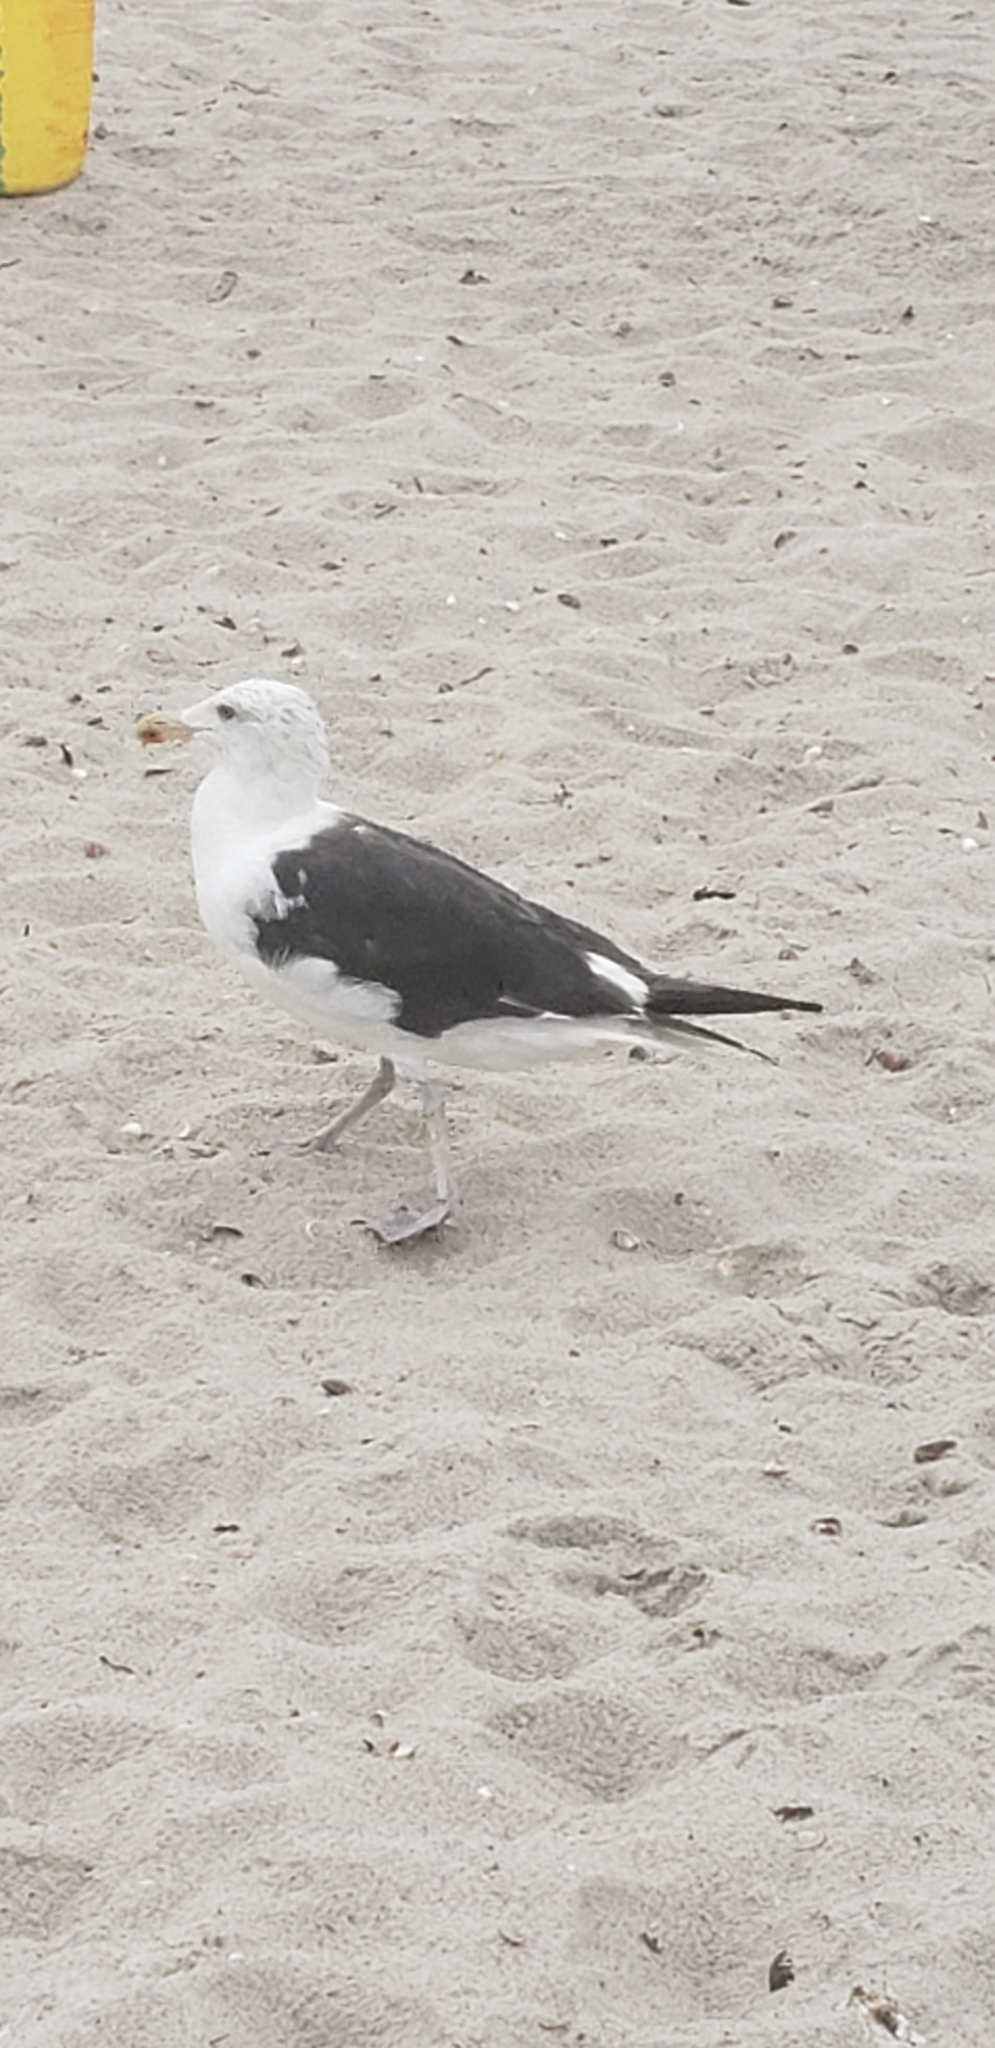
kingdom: Animalia
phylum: Chordata
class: Aves
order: Charadriiformes
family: Laridae
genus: Larus
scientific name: Larus marinus
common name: Great black-backed gull
